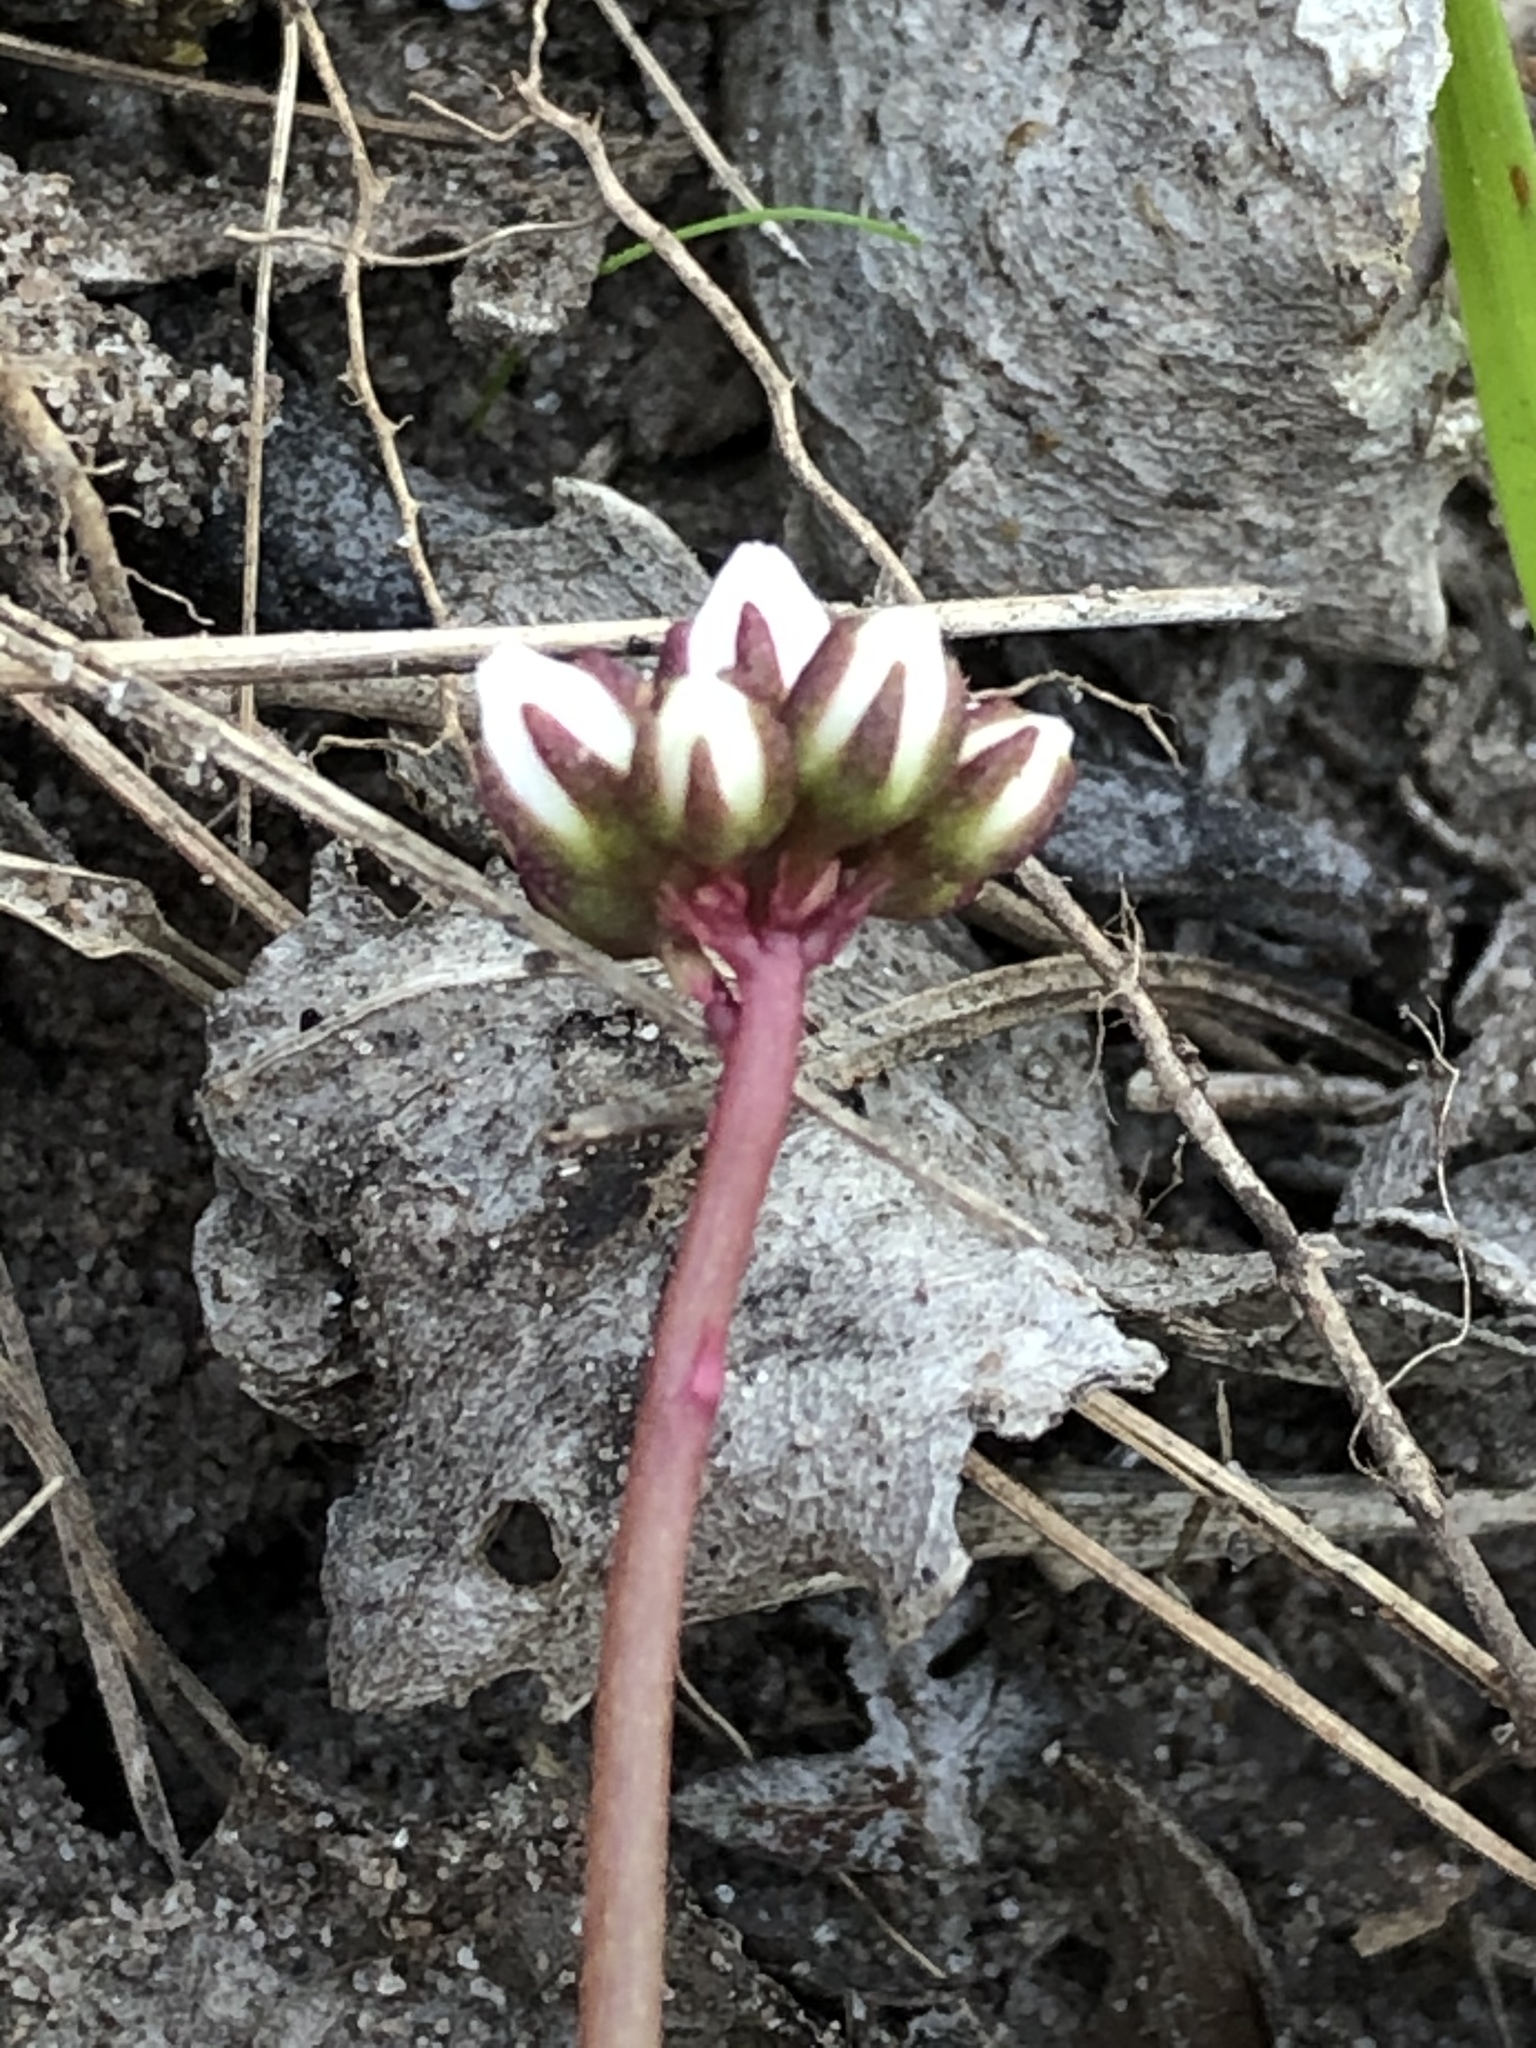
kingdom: Plantae
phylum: Tracheophyta
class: Magnoliopsida
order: Saxifragales
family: Crassulaceae
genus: Crassula
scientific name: Crassula saxifraga
